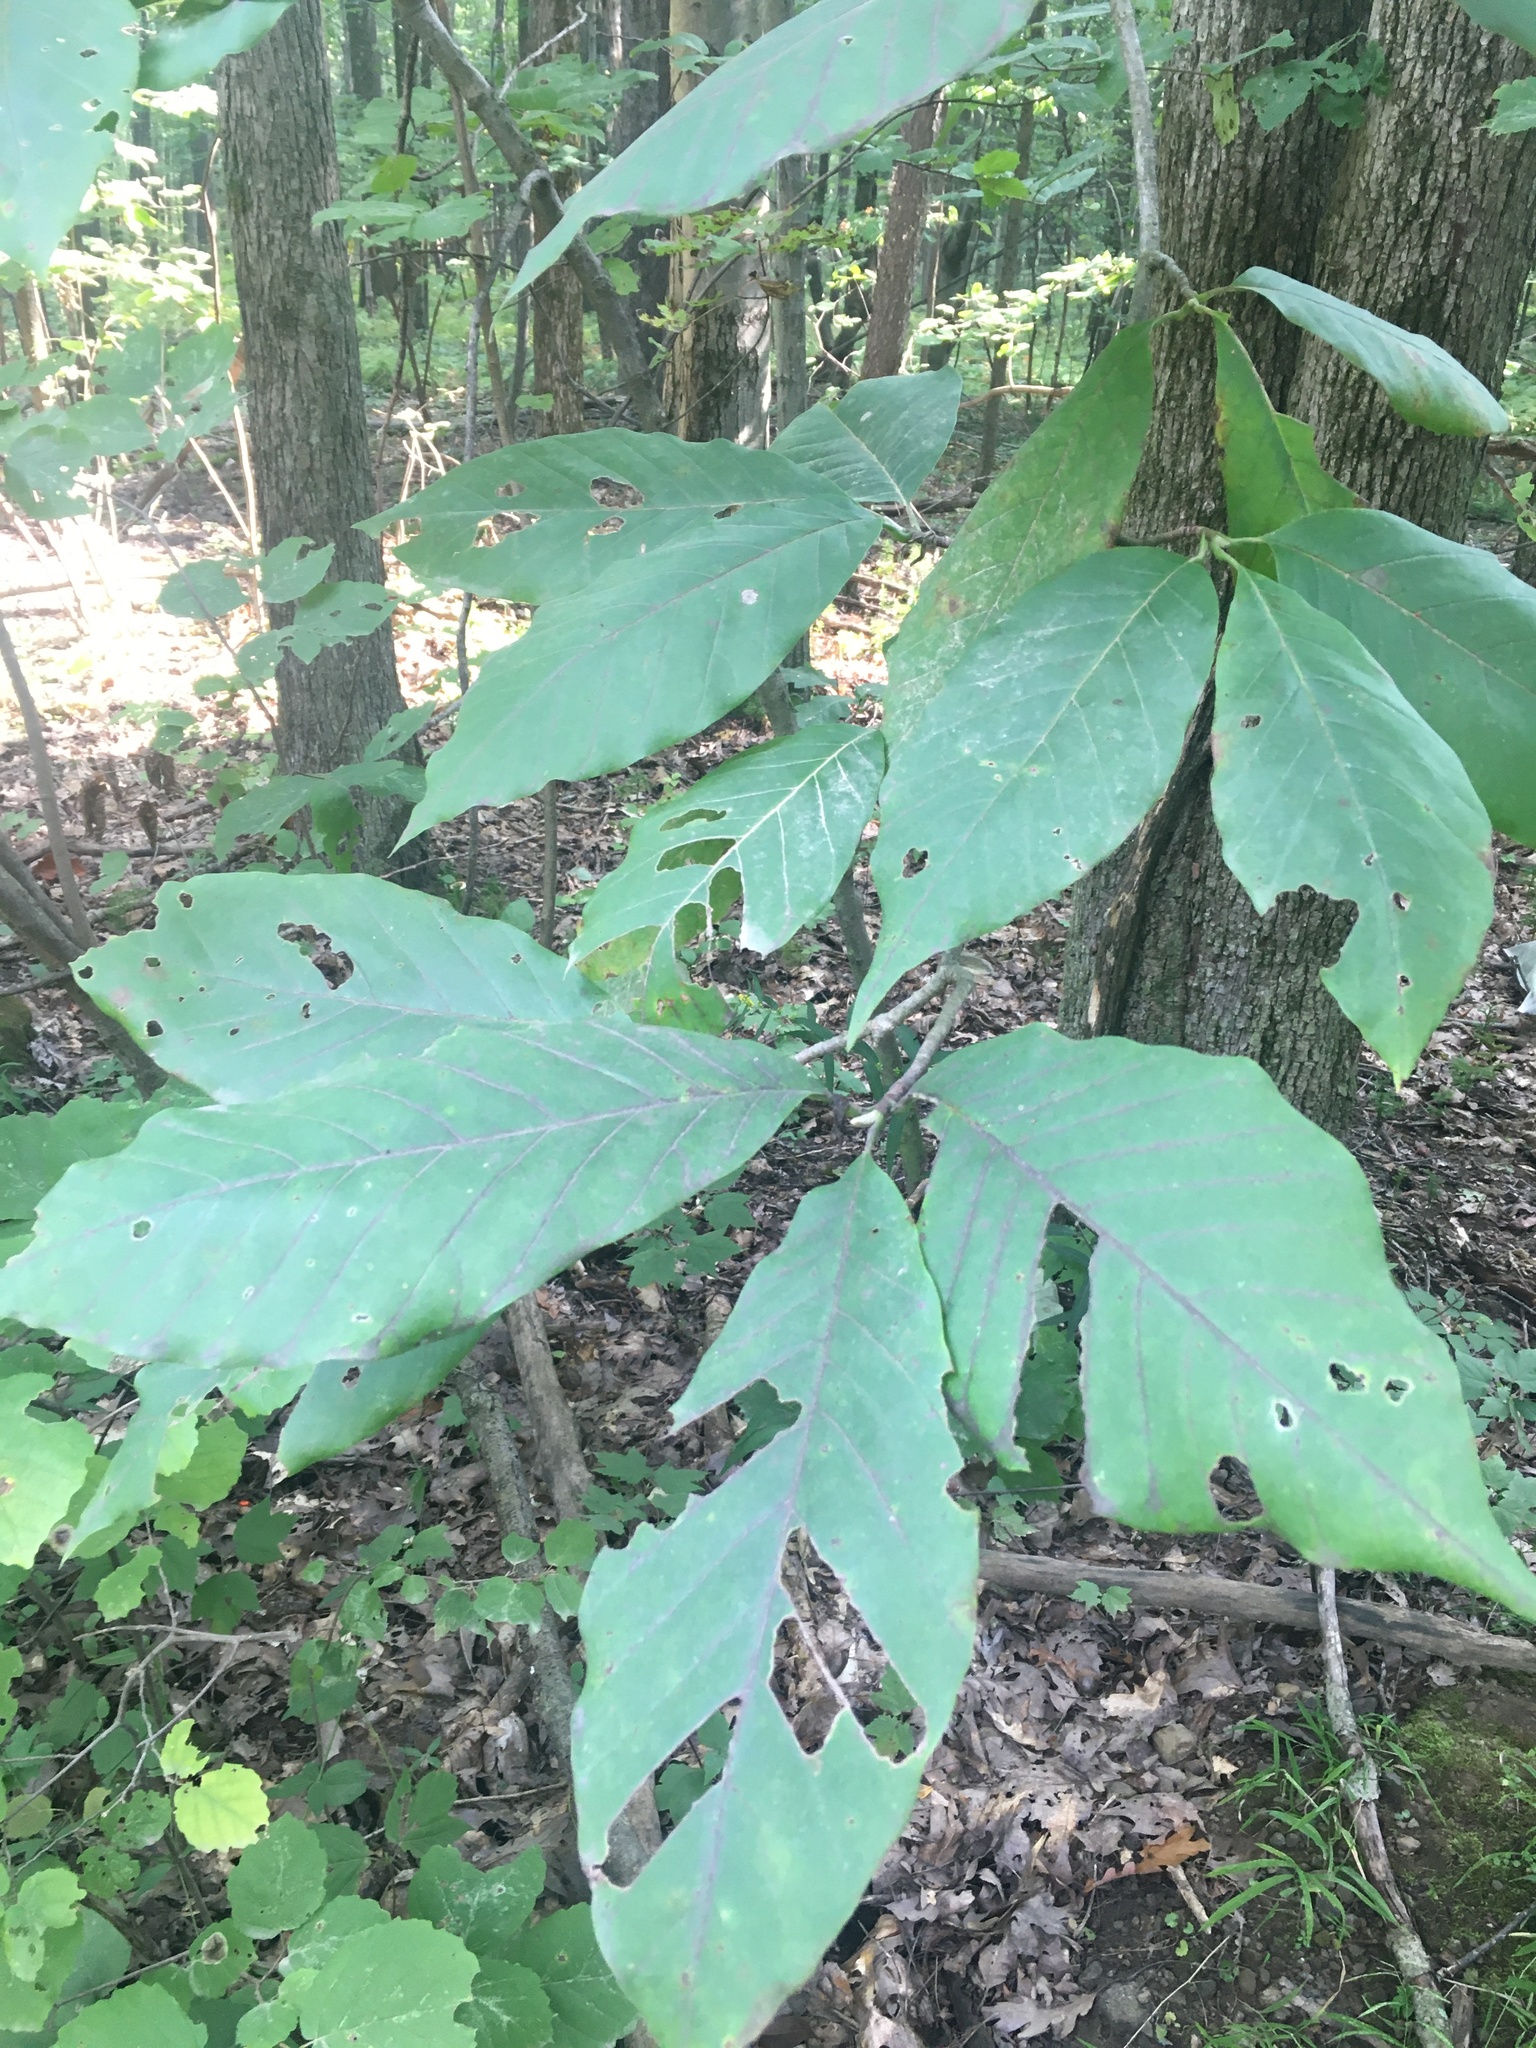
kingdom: Plantae
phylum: Tracheophyta
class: Magnoliopsida
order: Magnoliales
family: Magnoliaceae
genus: Magnolia
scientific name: Magnolia acuminata
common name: Cucumber magnolia
